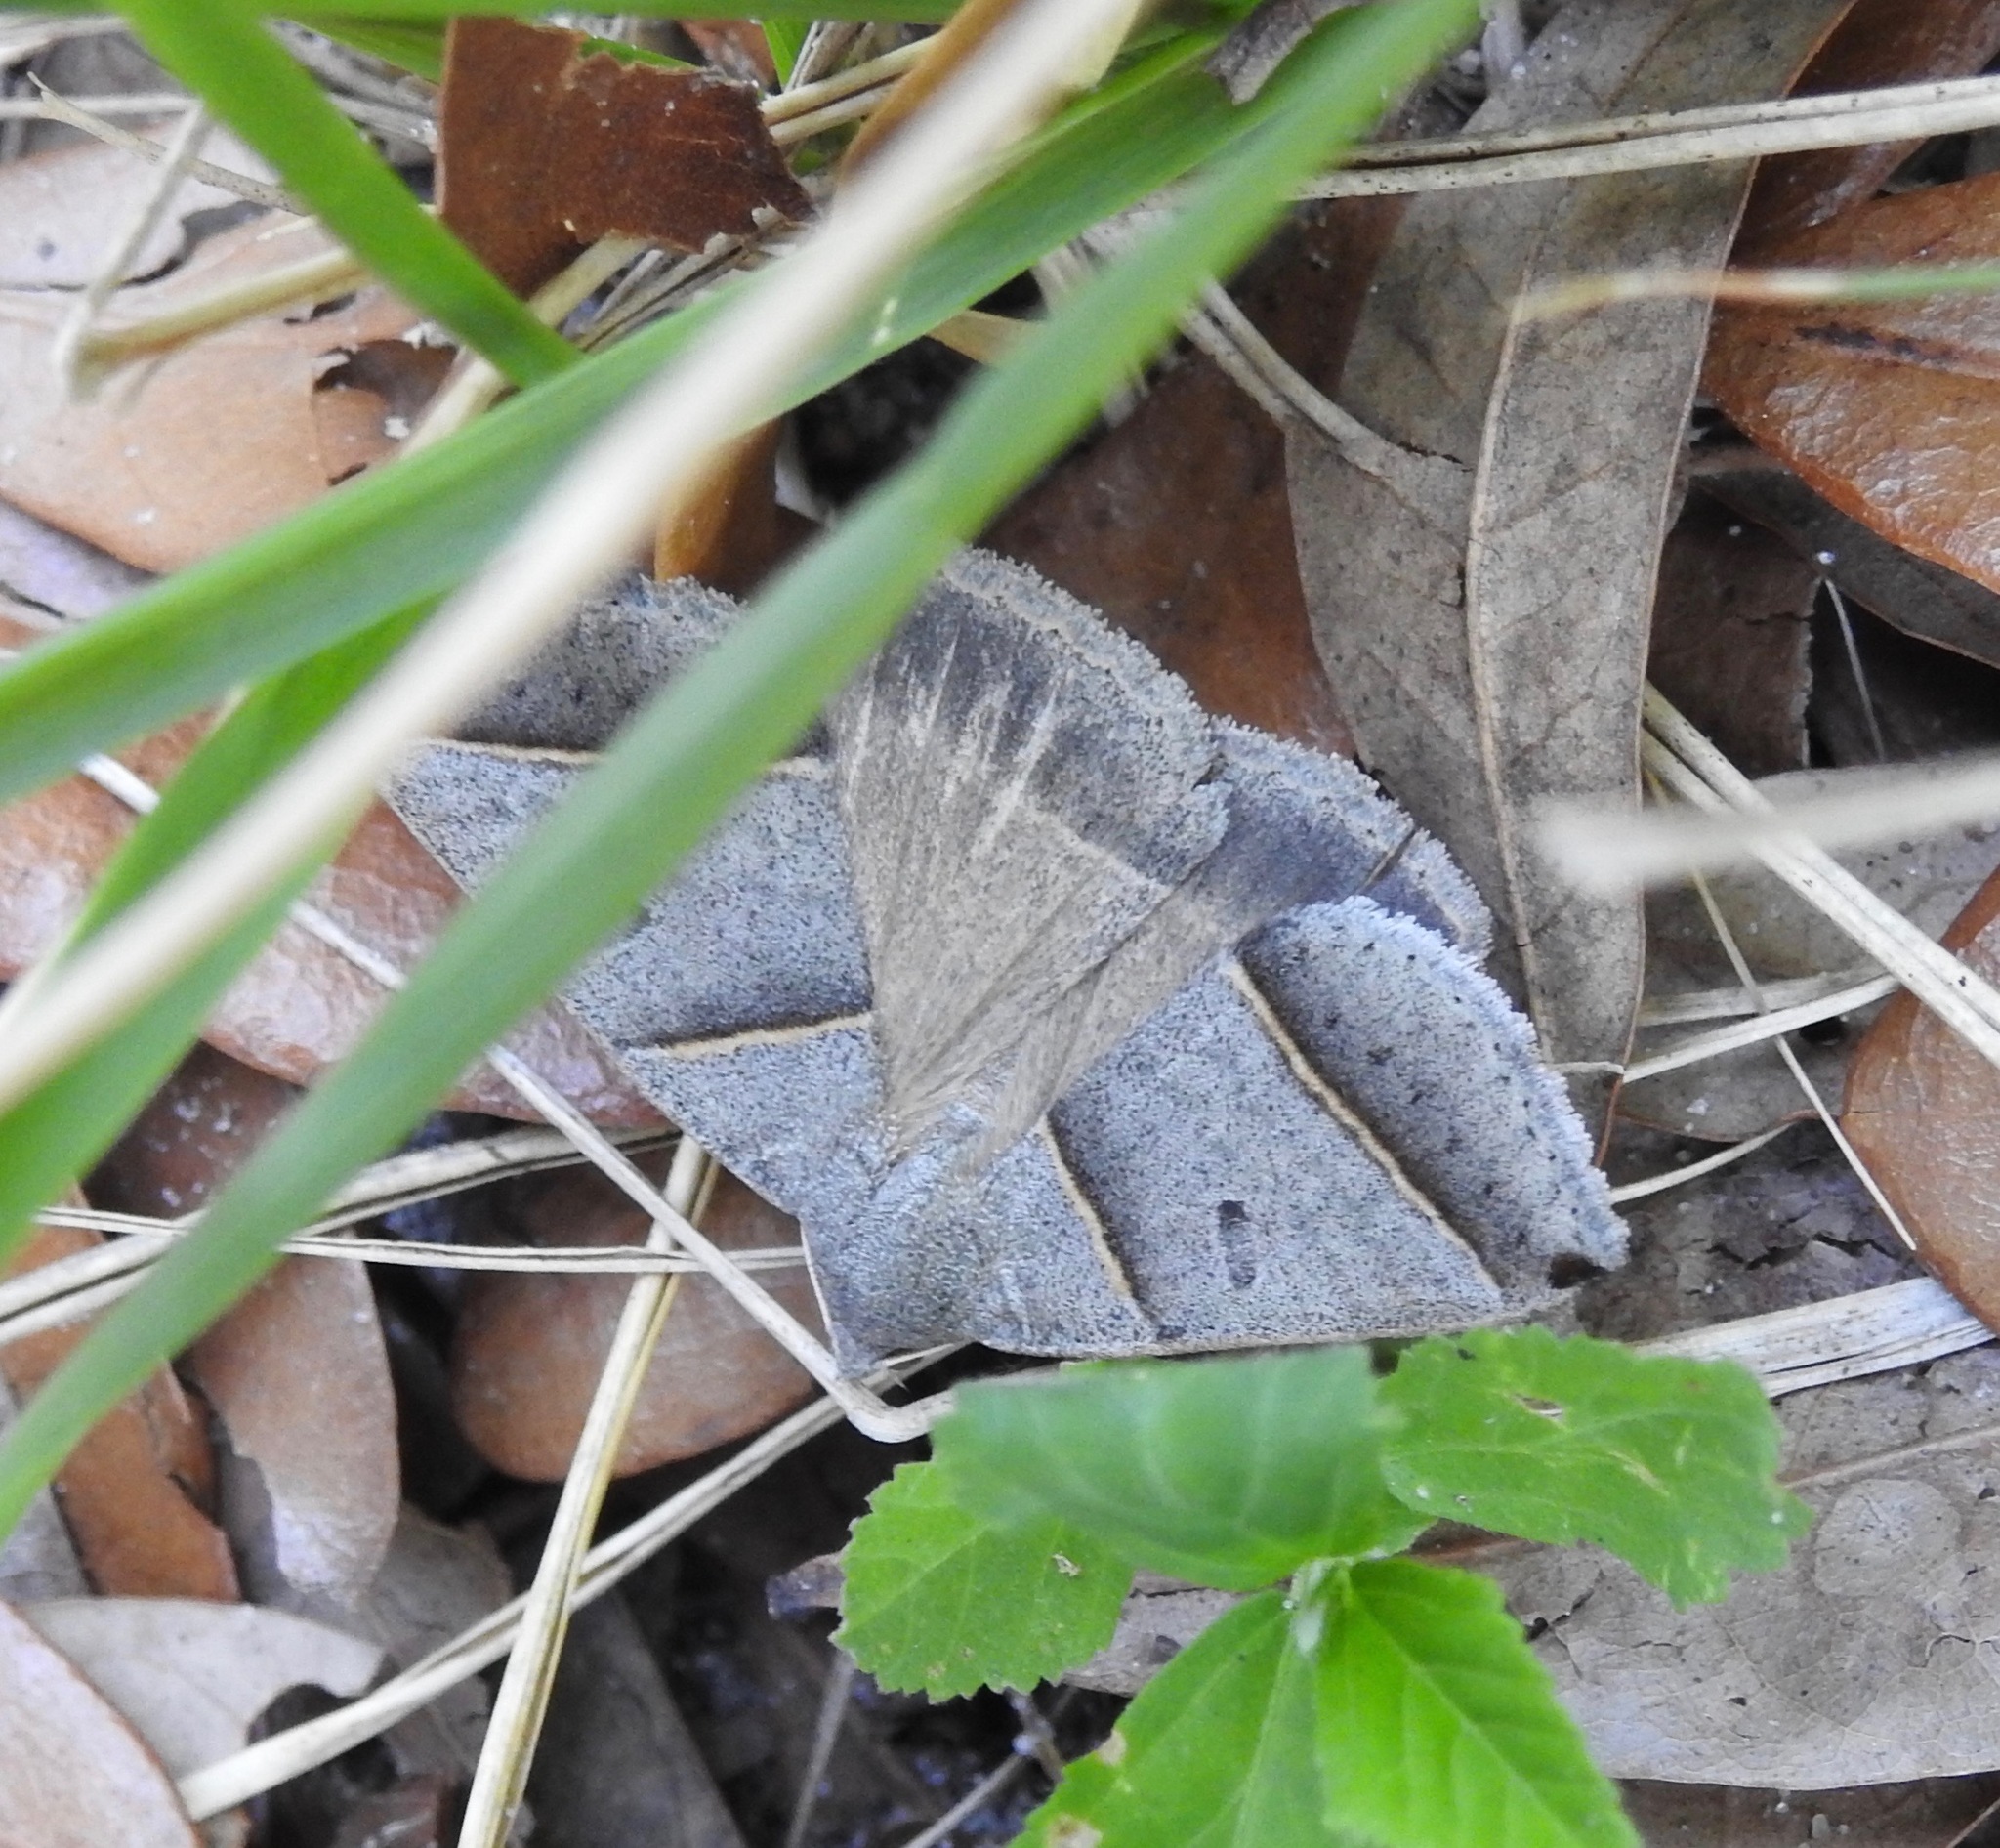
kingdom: Animalia
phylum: Arthropoda
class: Insecta
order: Lepidoptera
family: Erebidae
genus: Ptichodis
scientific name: Ptichodis vinculum
